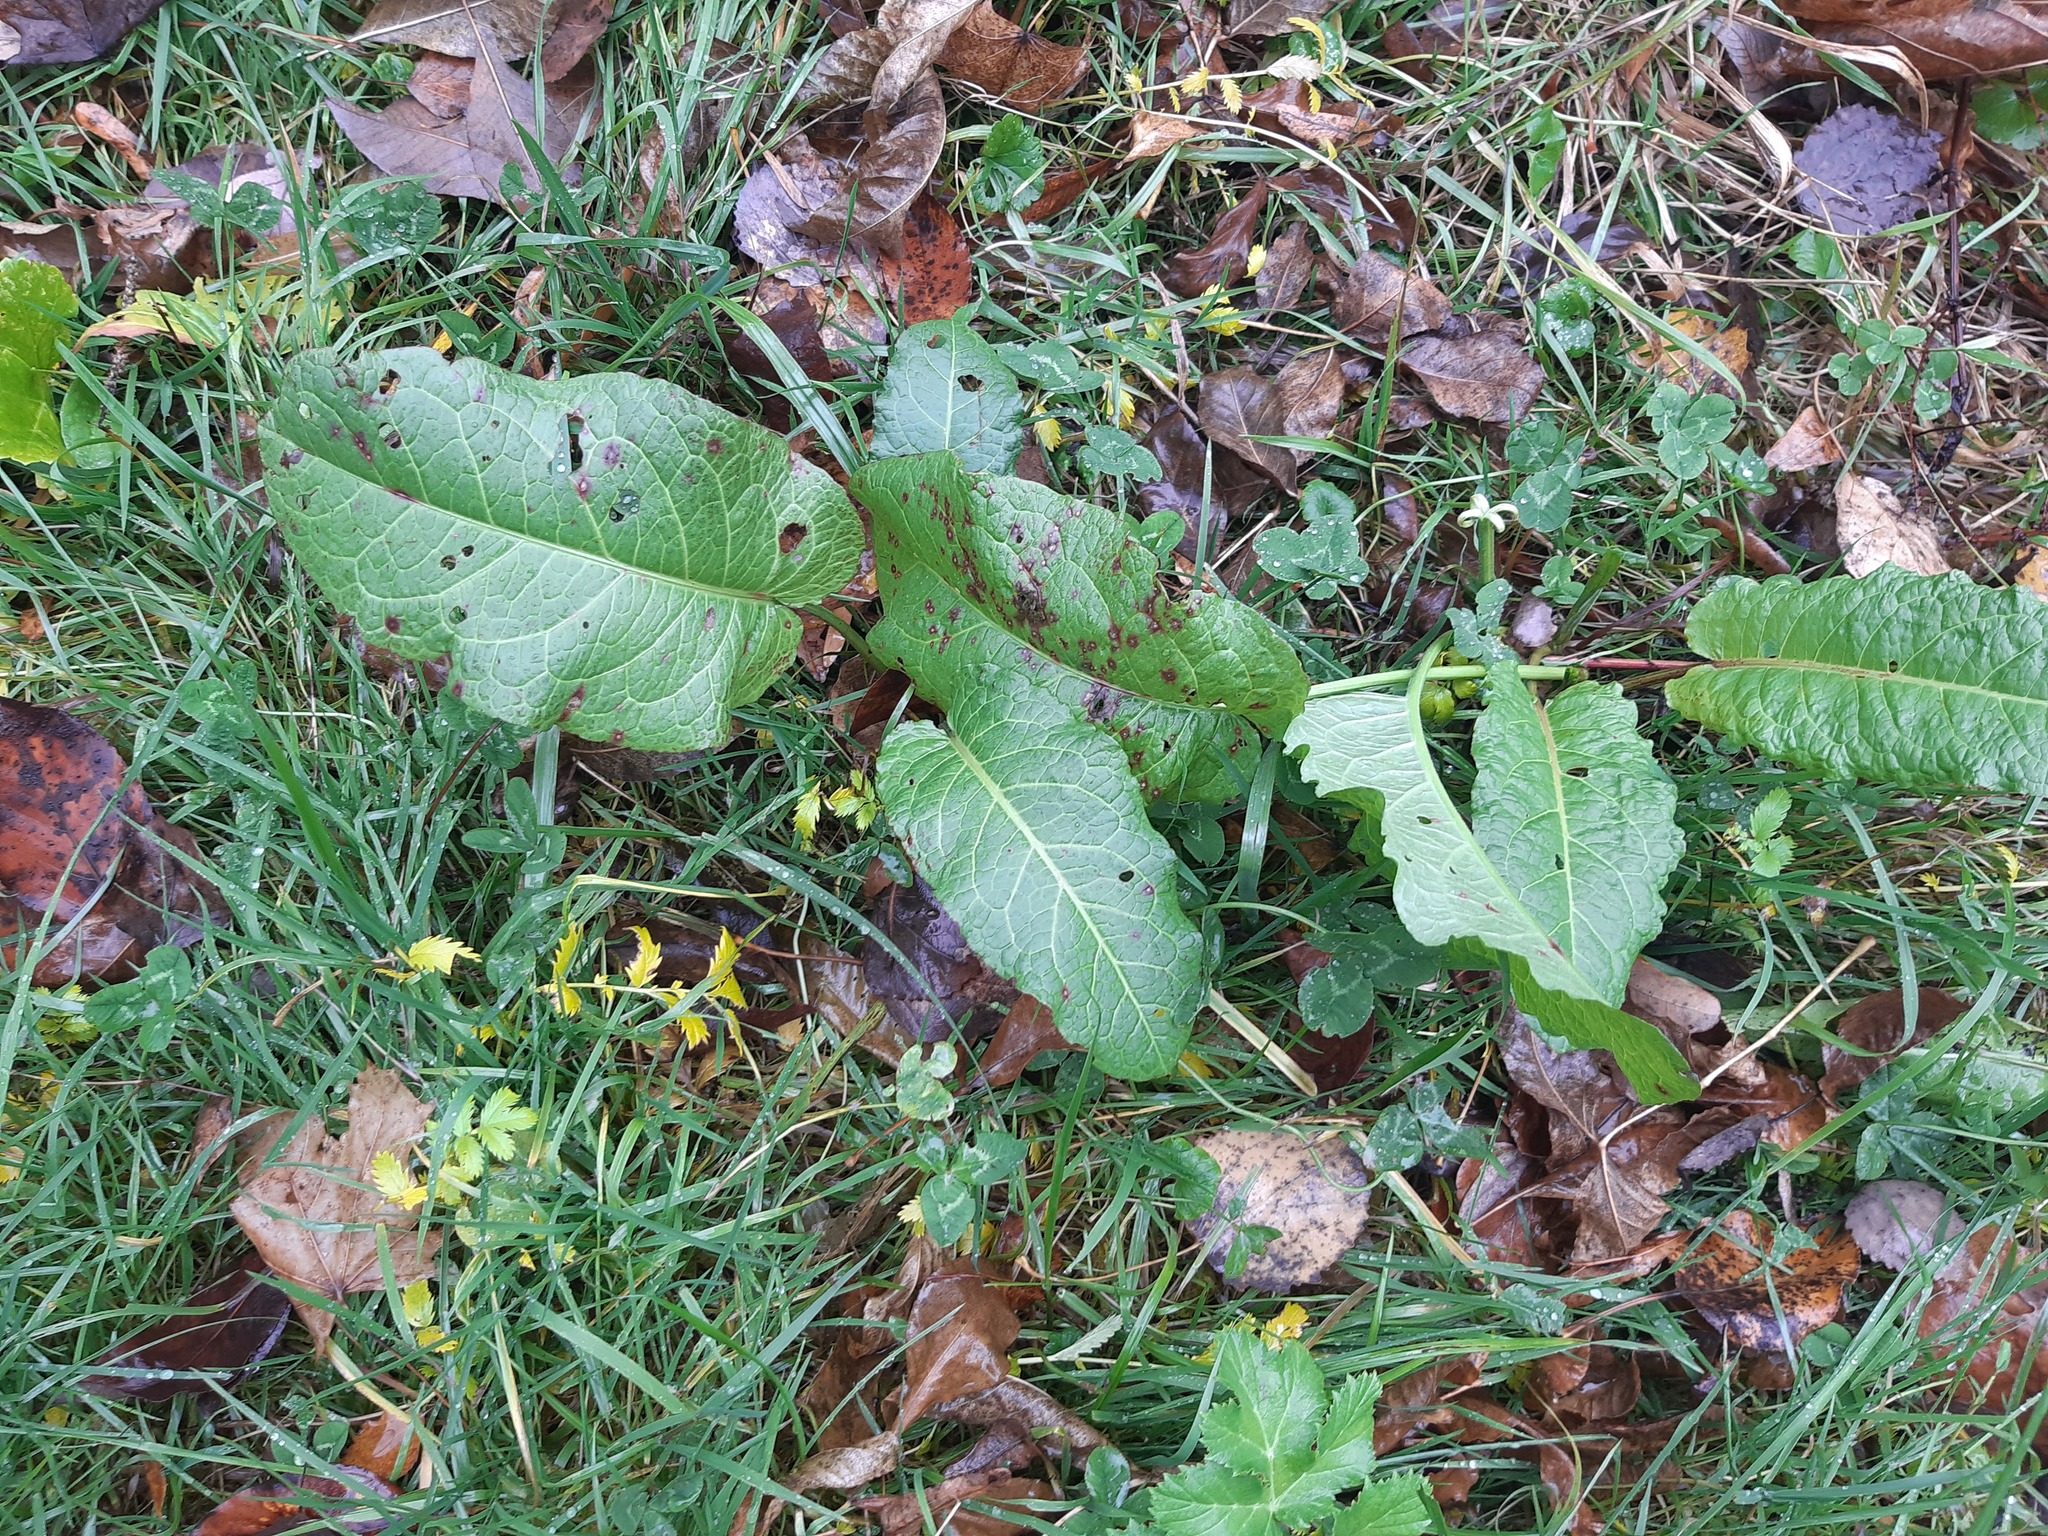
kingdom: Plantae
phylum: Tracheophyta
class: Magnoliopsida
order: Caryophyllales
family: Polygonaceae
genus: Rumex
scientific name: Rumex obtusifolius
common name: Bitter dock
